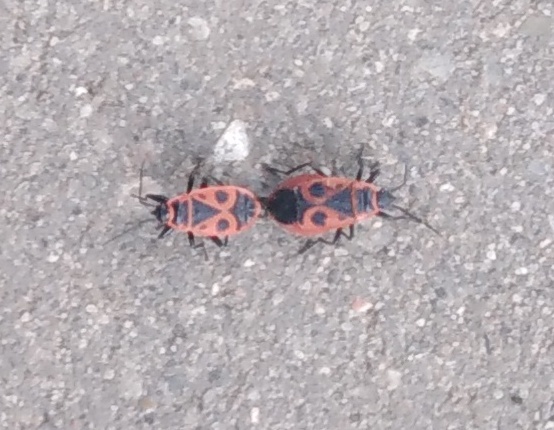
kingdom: Animalia
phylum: Arthropoda
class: Insecta
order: Hemiptera
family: Pyrrhocoridae
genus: Pyrrhocoris
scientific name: Pyrrhocoris apterus
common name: Firebug
